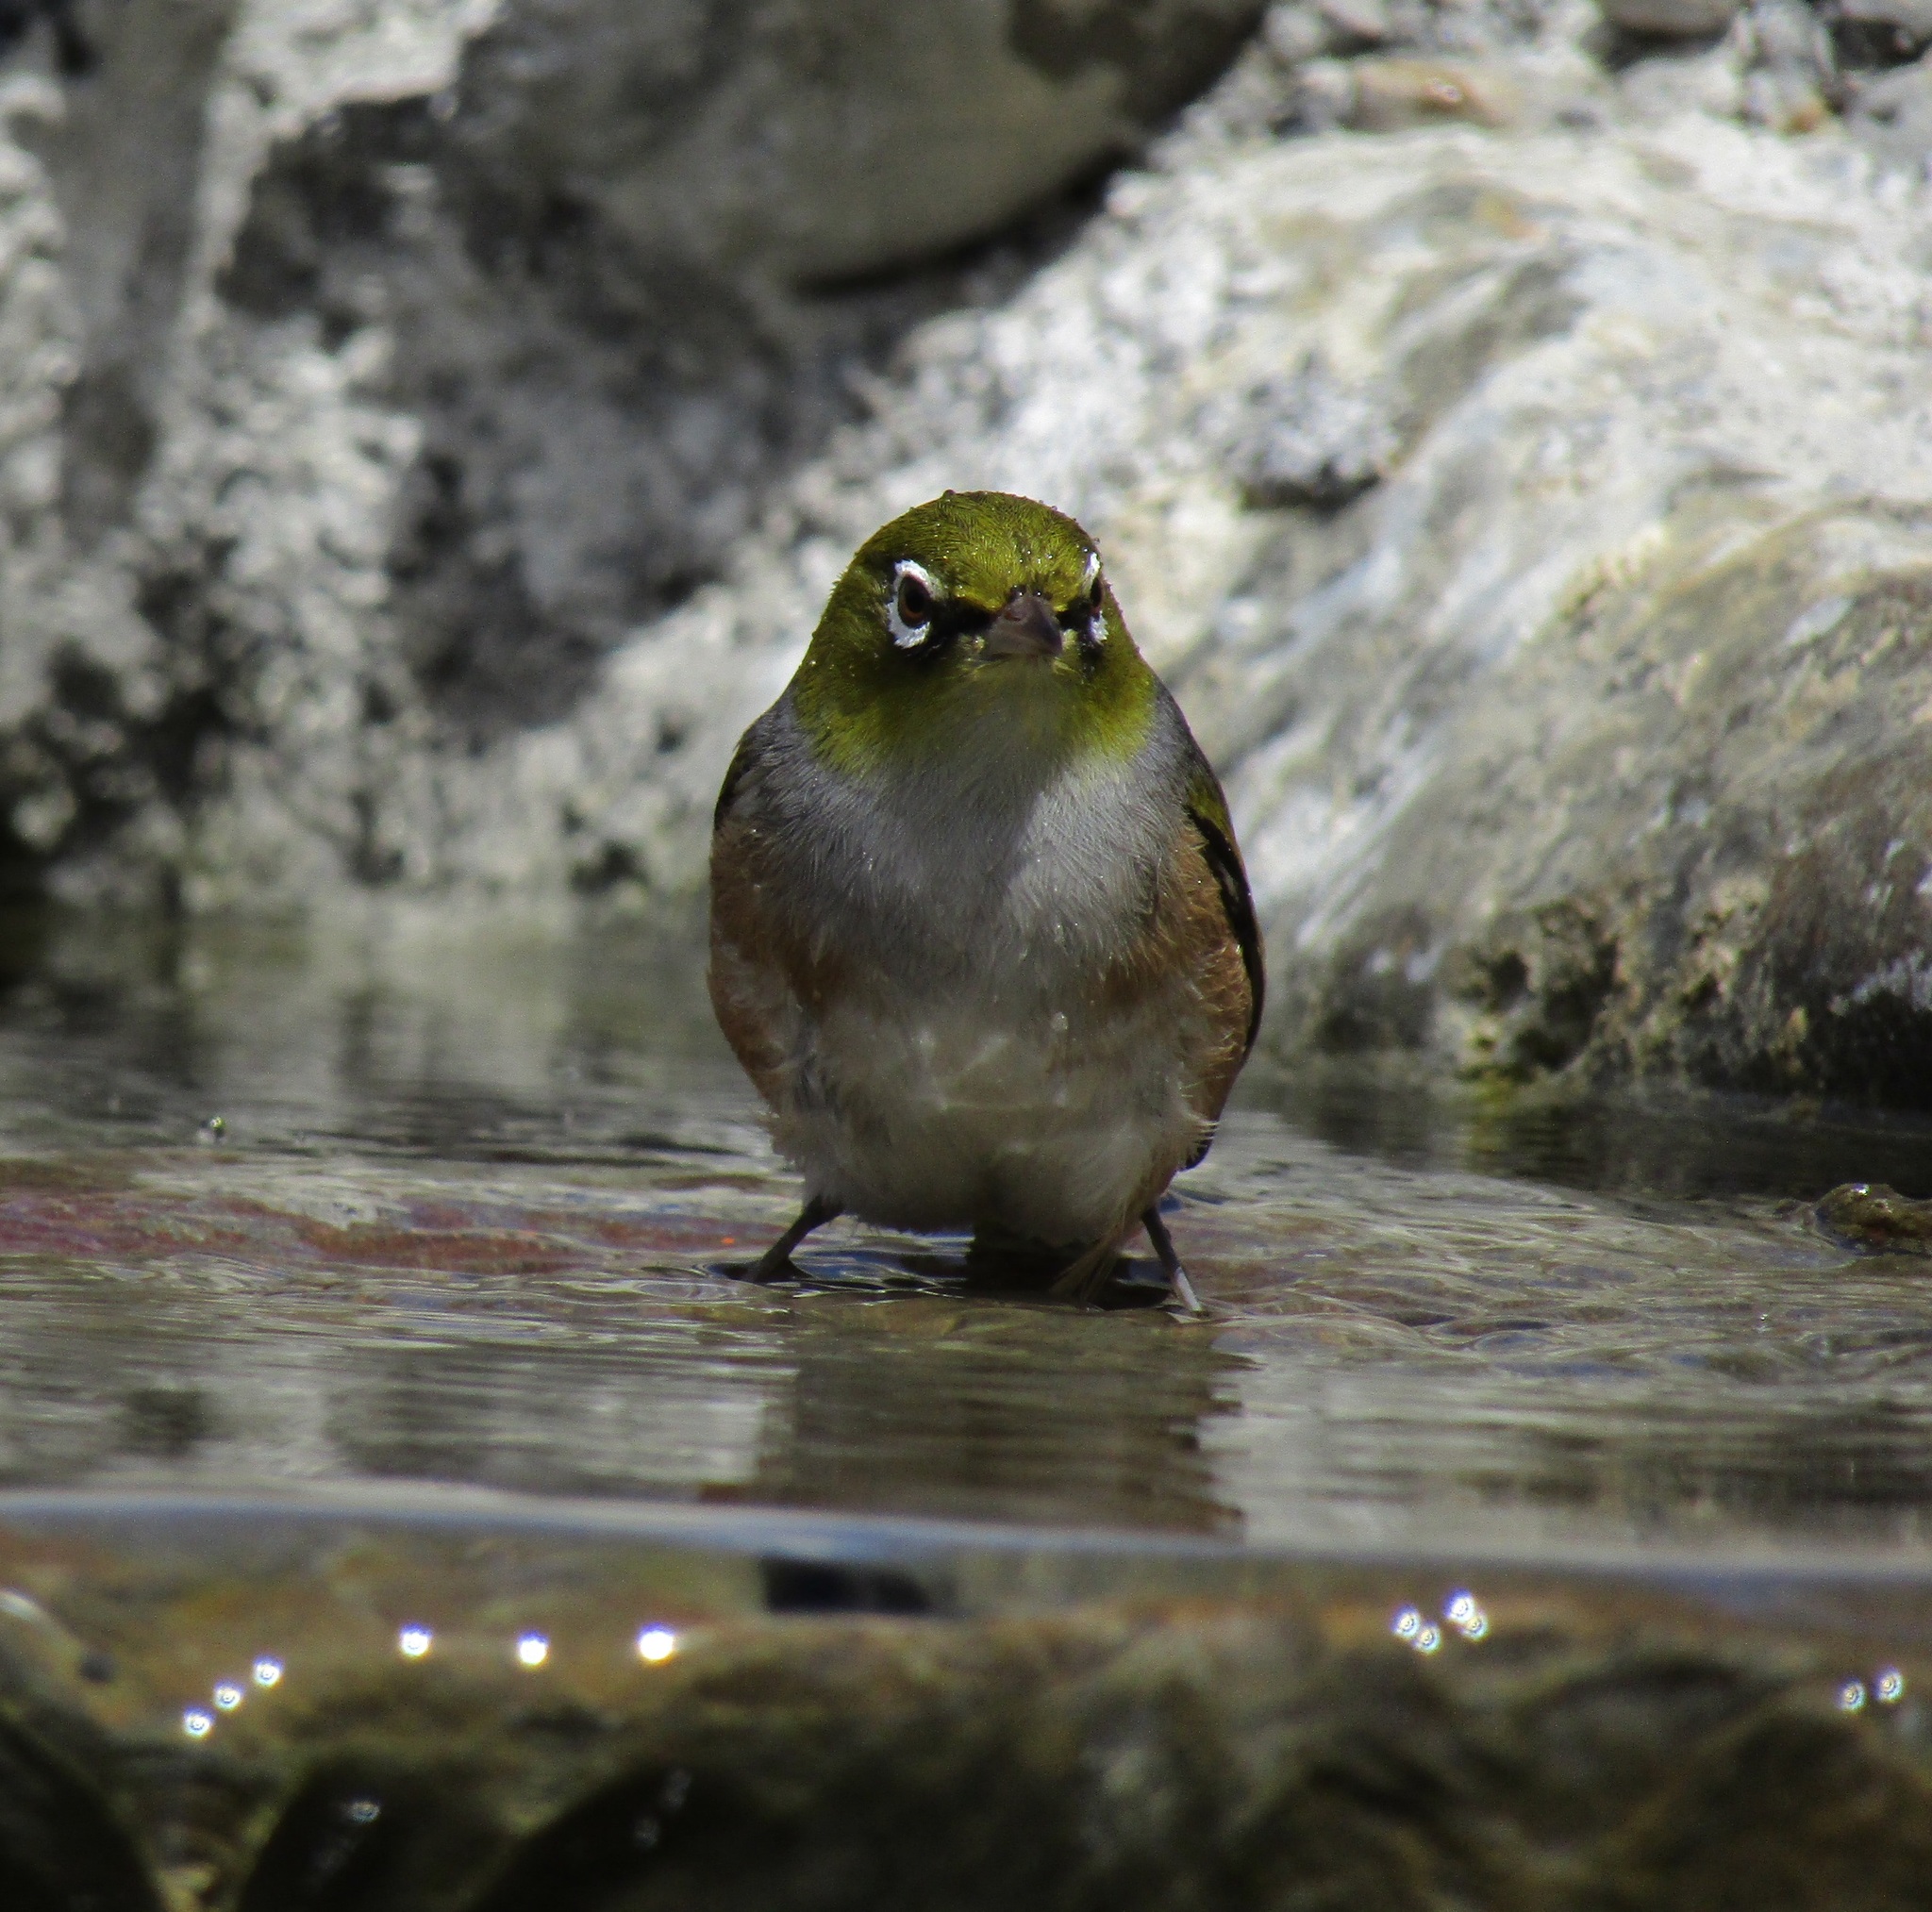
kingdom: Animalia
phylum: Chordata
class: Aves
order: Passeriformes
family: Zosteropidae
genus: Zosterops
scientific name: Zosterops lateralis
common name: Silvereye
